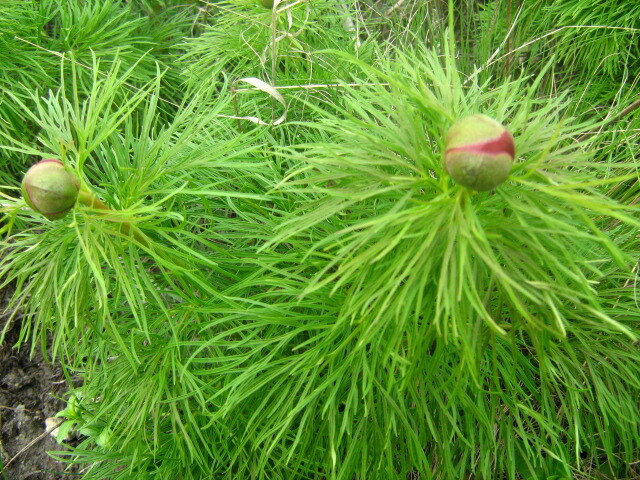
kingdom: Plantae
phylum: Tracheophyta
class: Magnoliopsida
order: Saxifragales
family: Paeoniaceae
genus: Paeonia
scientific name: Paeonia tenuifolia
